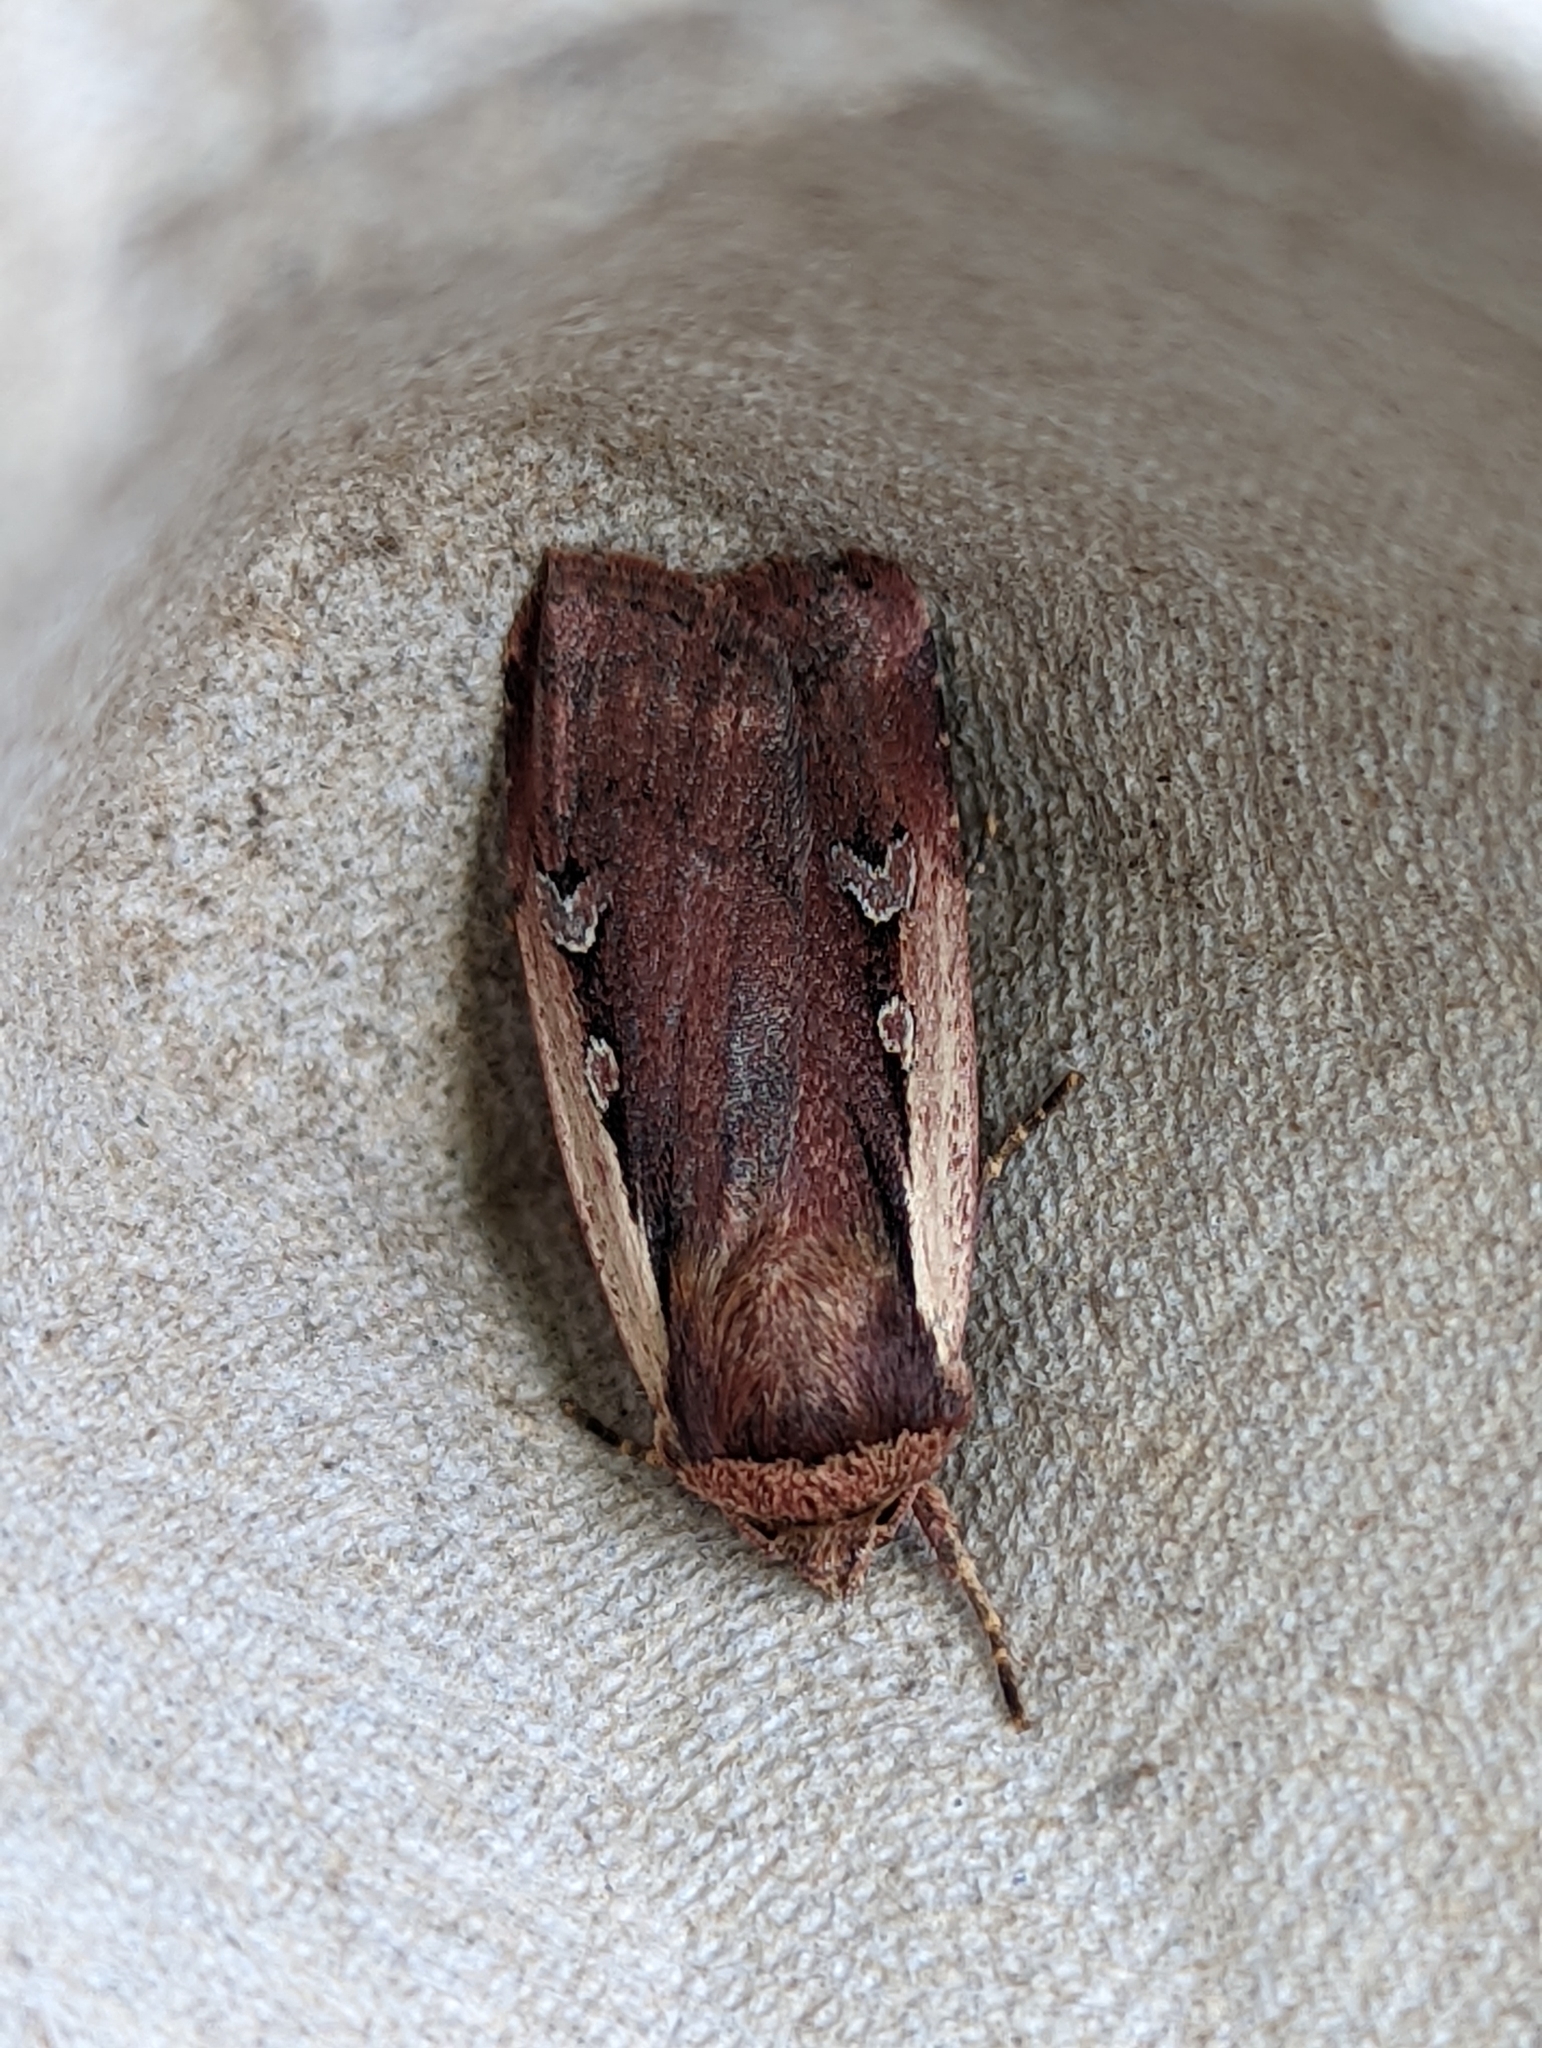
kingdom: Animalia
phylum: Arthropoda
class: Insecta
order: Lepidoptera
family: Noctuidae
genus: Ochropleura
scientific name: Ochropleura plecta
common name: Flame shoulder
